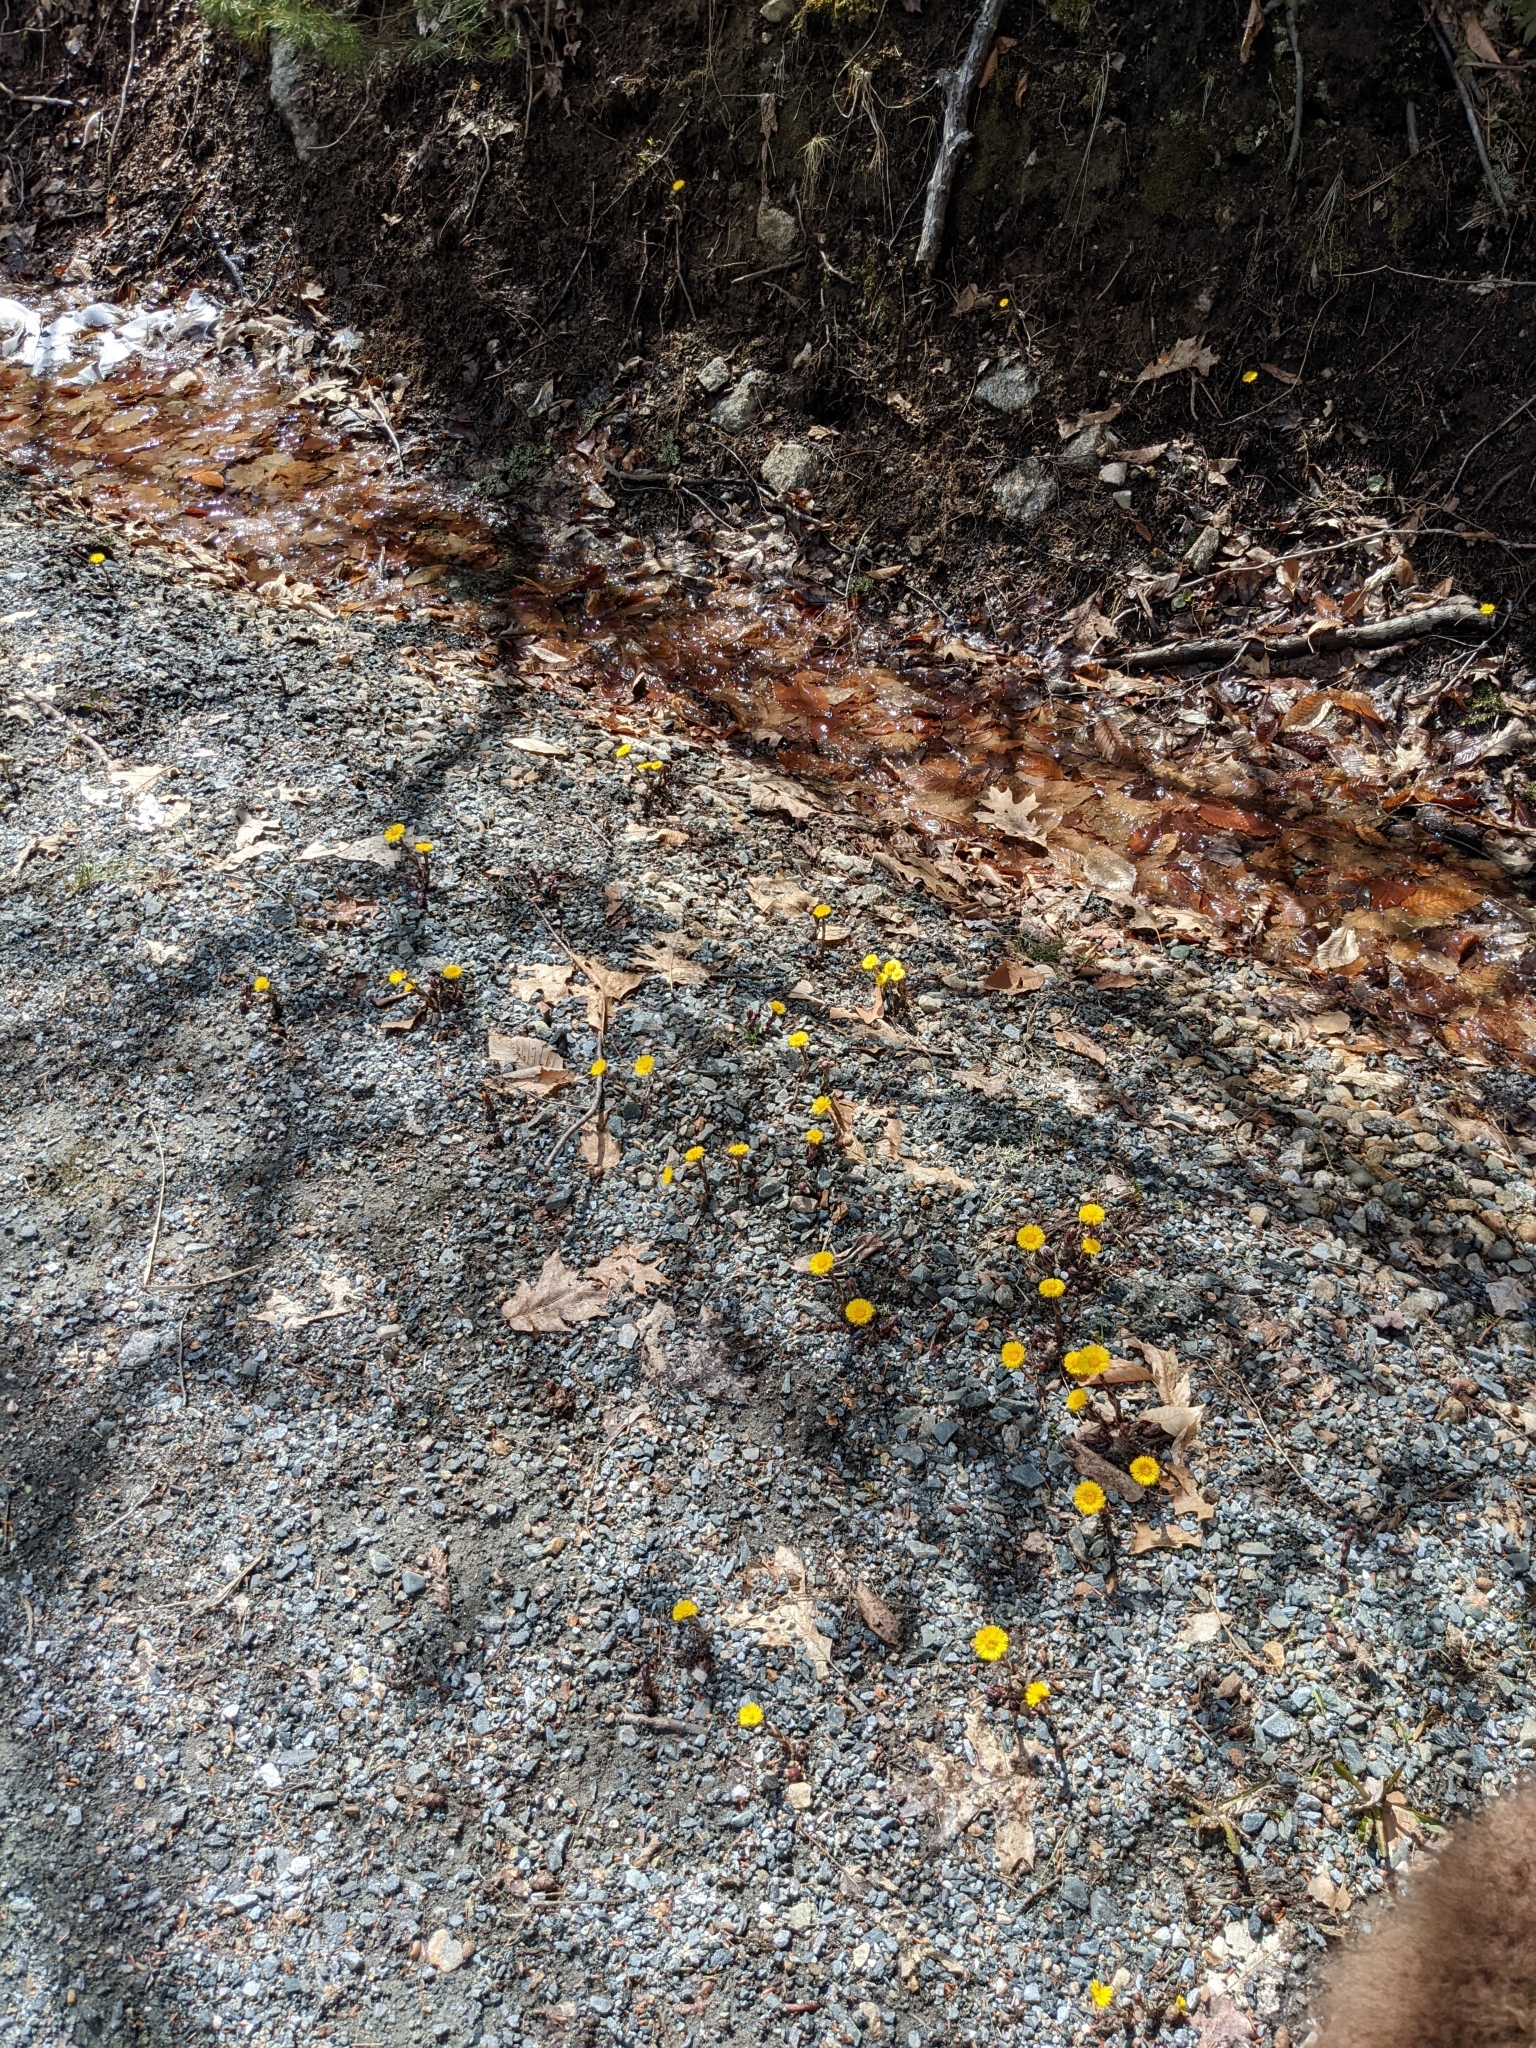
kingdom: Plantae
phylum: Tracheophyta
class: Magnoliopsida
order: Asterales
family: Asteraceae
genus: Tussilago
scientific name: Tussilago farfara
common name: Coltsfoot
